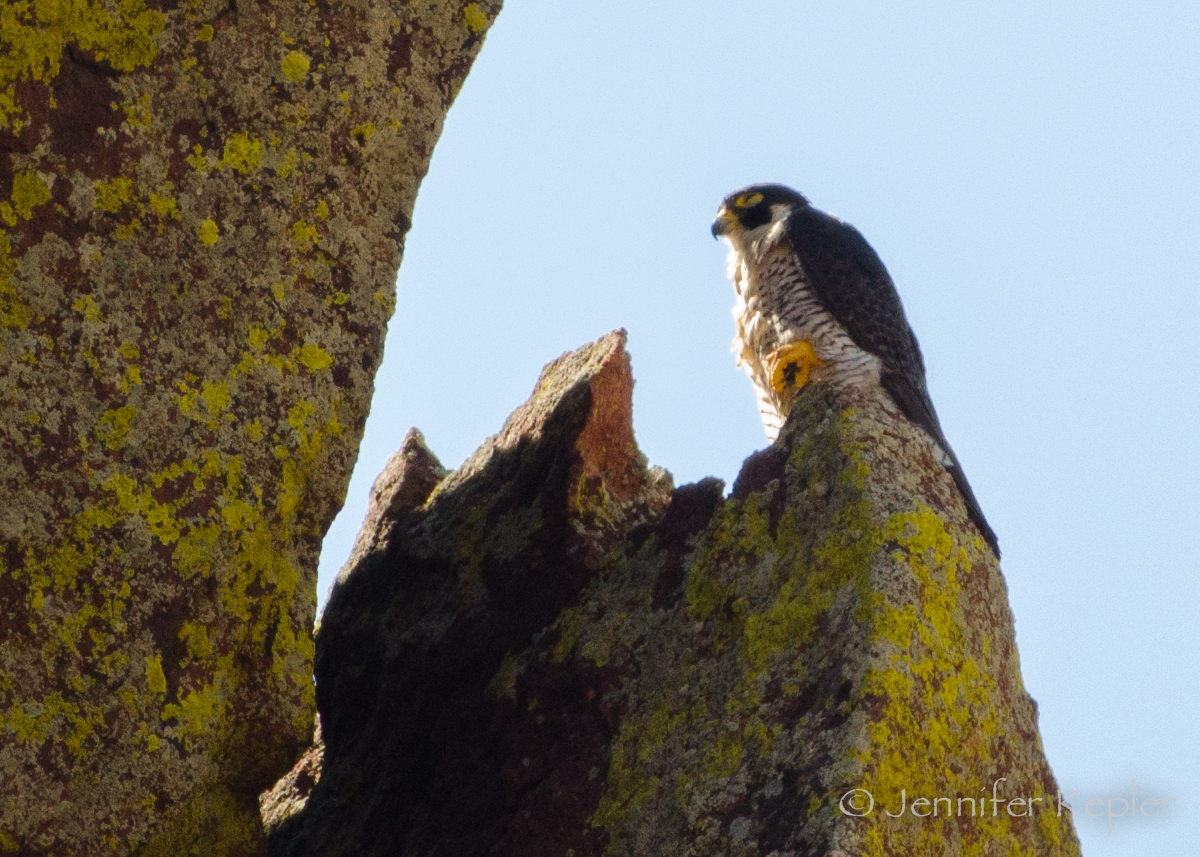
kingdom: Animalia
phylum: Chordata
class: Aves
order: Falconiformes
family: Falconidae
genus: Falco
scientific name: Falco peregrinus
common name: Peregrine falcon
